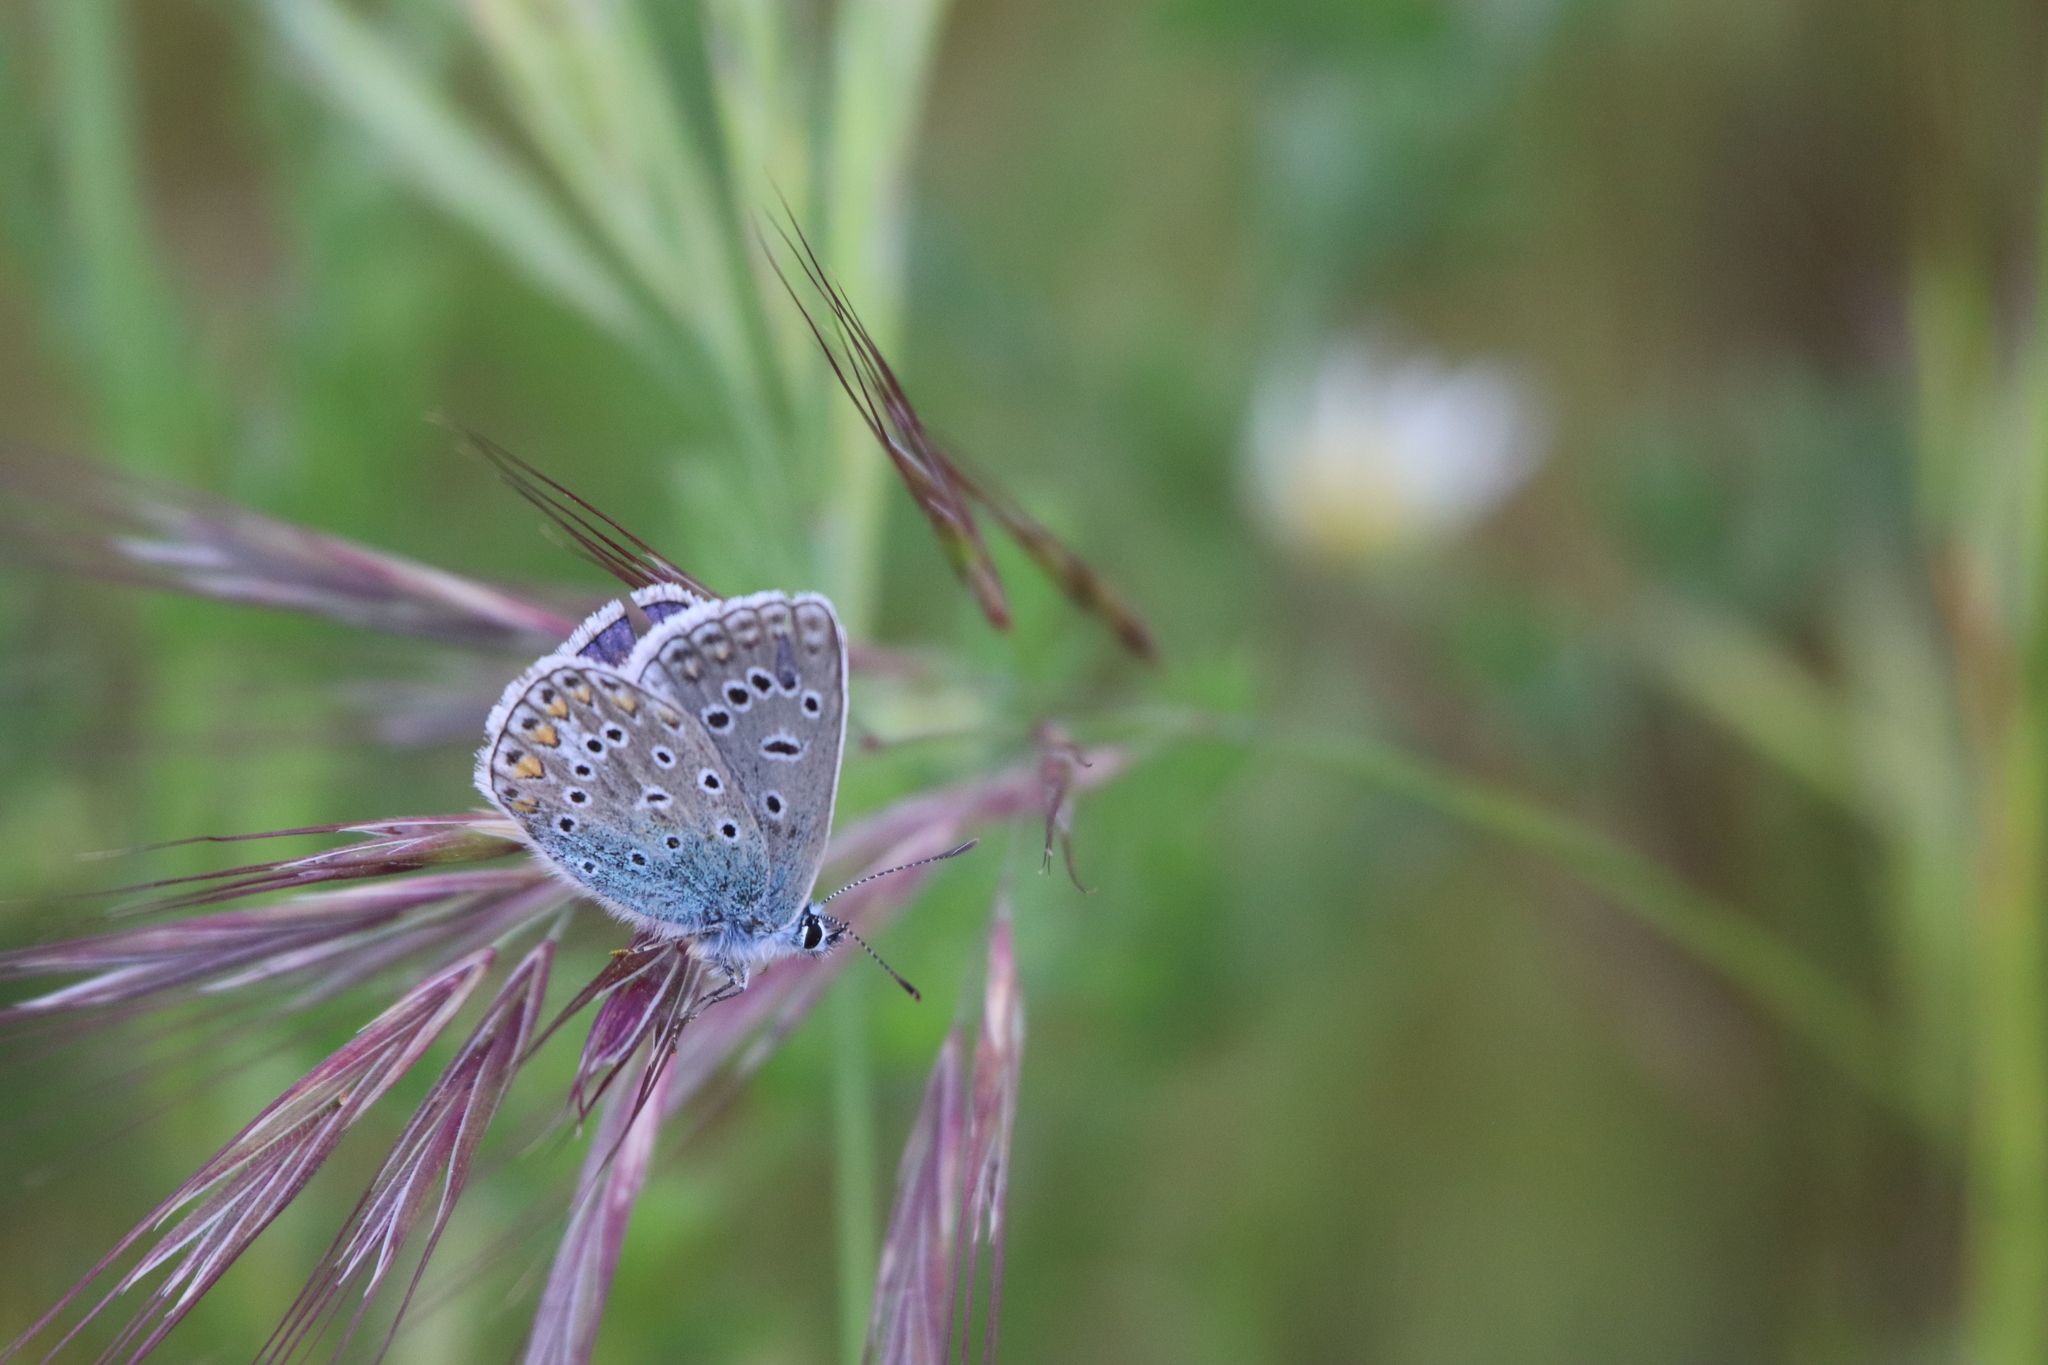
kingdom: Animalia
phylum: Arthropoda
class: Insecta
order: Lepidoptera
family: Lycaenidae
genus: Polyommatus
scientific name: Polyommatus icarus
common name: Common blue
